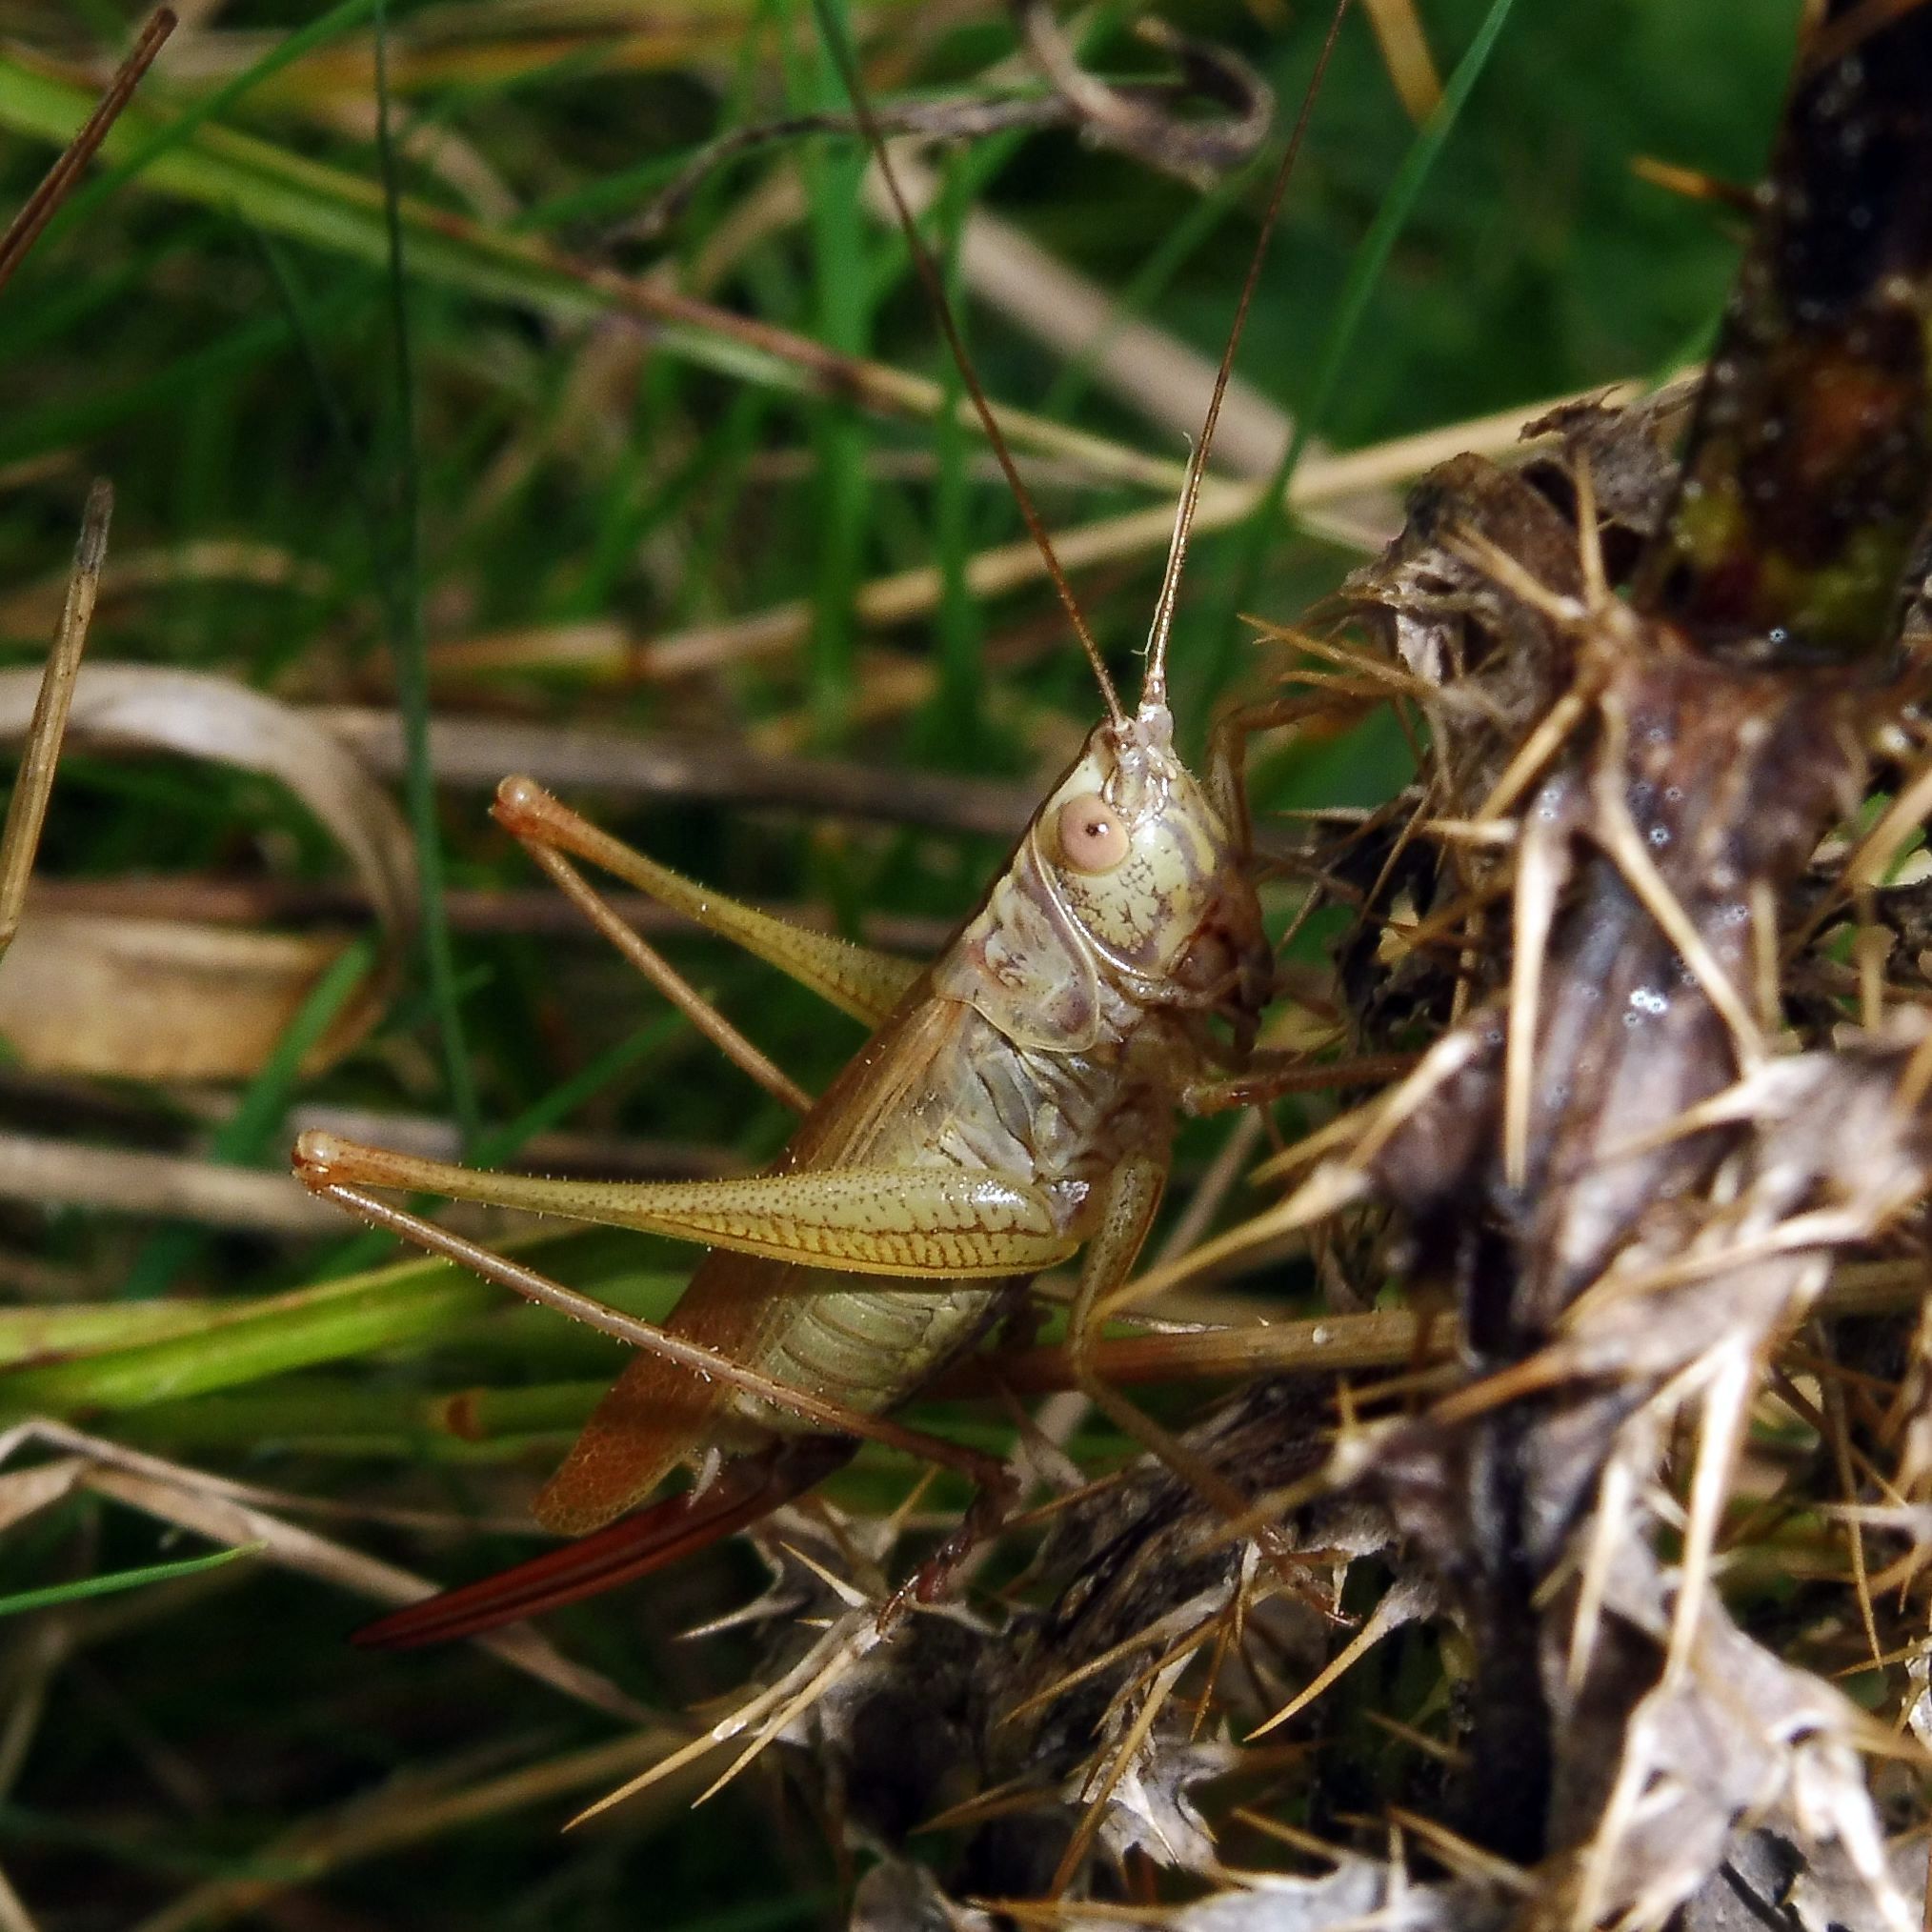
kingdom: Animalia
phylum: Arthropoda
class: Insecta
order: Orthoptera
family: Tettigoniidae
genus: Conocephalus
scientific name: Conocephalus fuscus
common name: Long-winged conehead
